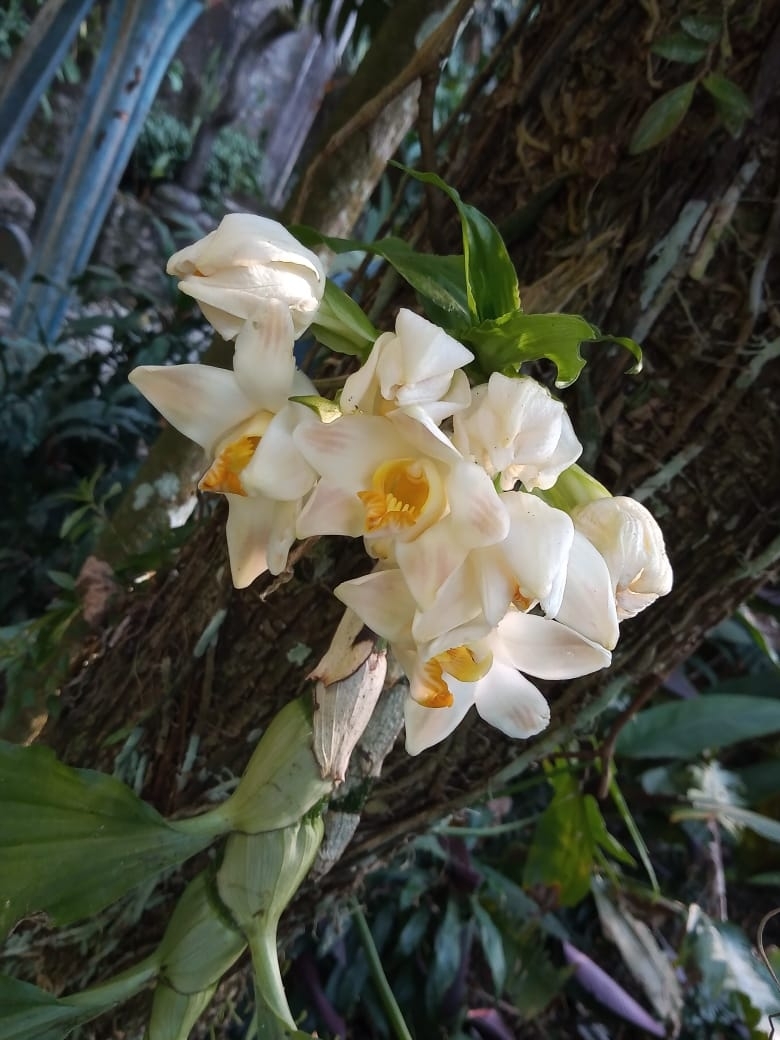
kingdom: Plantae
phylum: Tracheophyta
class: Liliopsida
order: Asparagales
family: Orchidaceae
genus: Chysis
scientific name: Chysis bractescens
